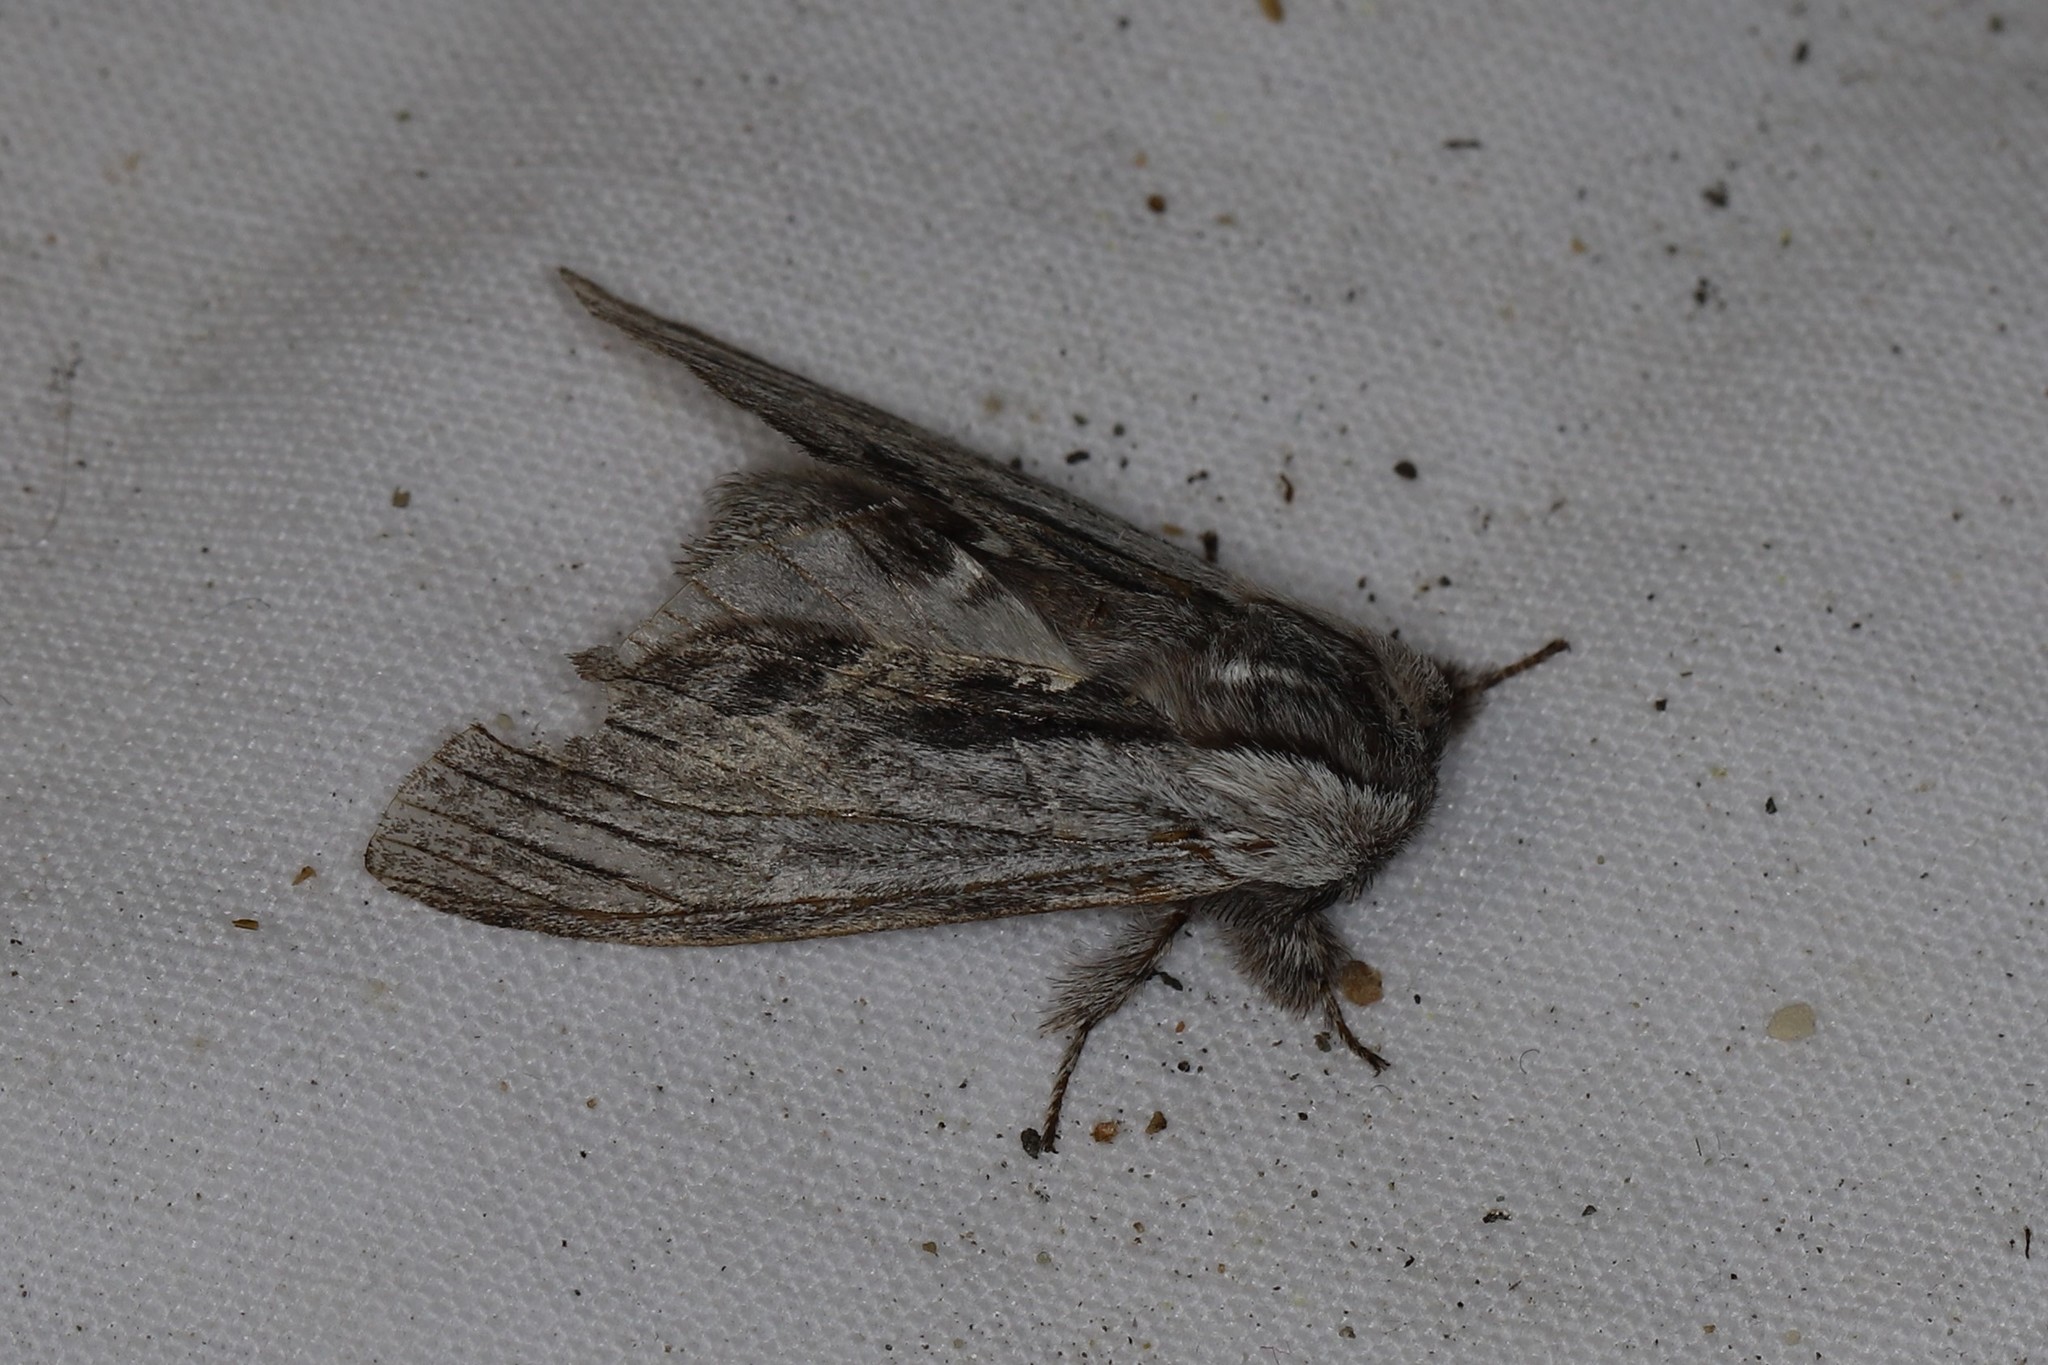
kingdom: Animalia
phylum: Arthropoda
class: Insecta
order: Lepidoptera
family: Notodontidae
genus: Harpyia
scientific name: Harpyia milhauseri
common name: Tawny prominent
